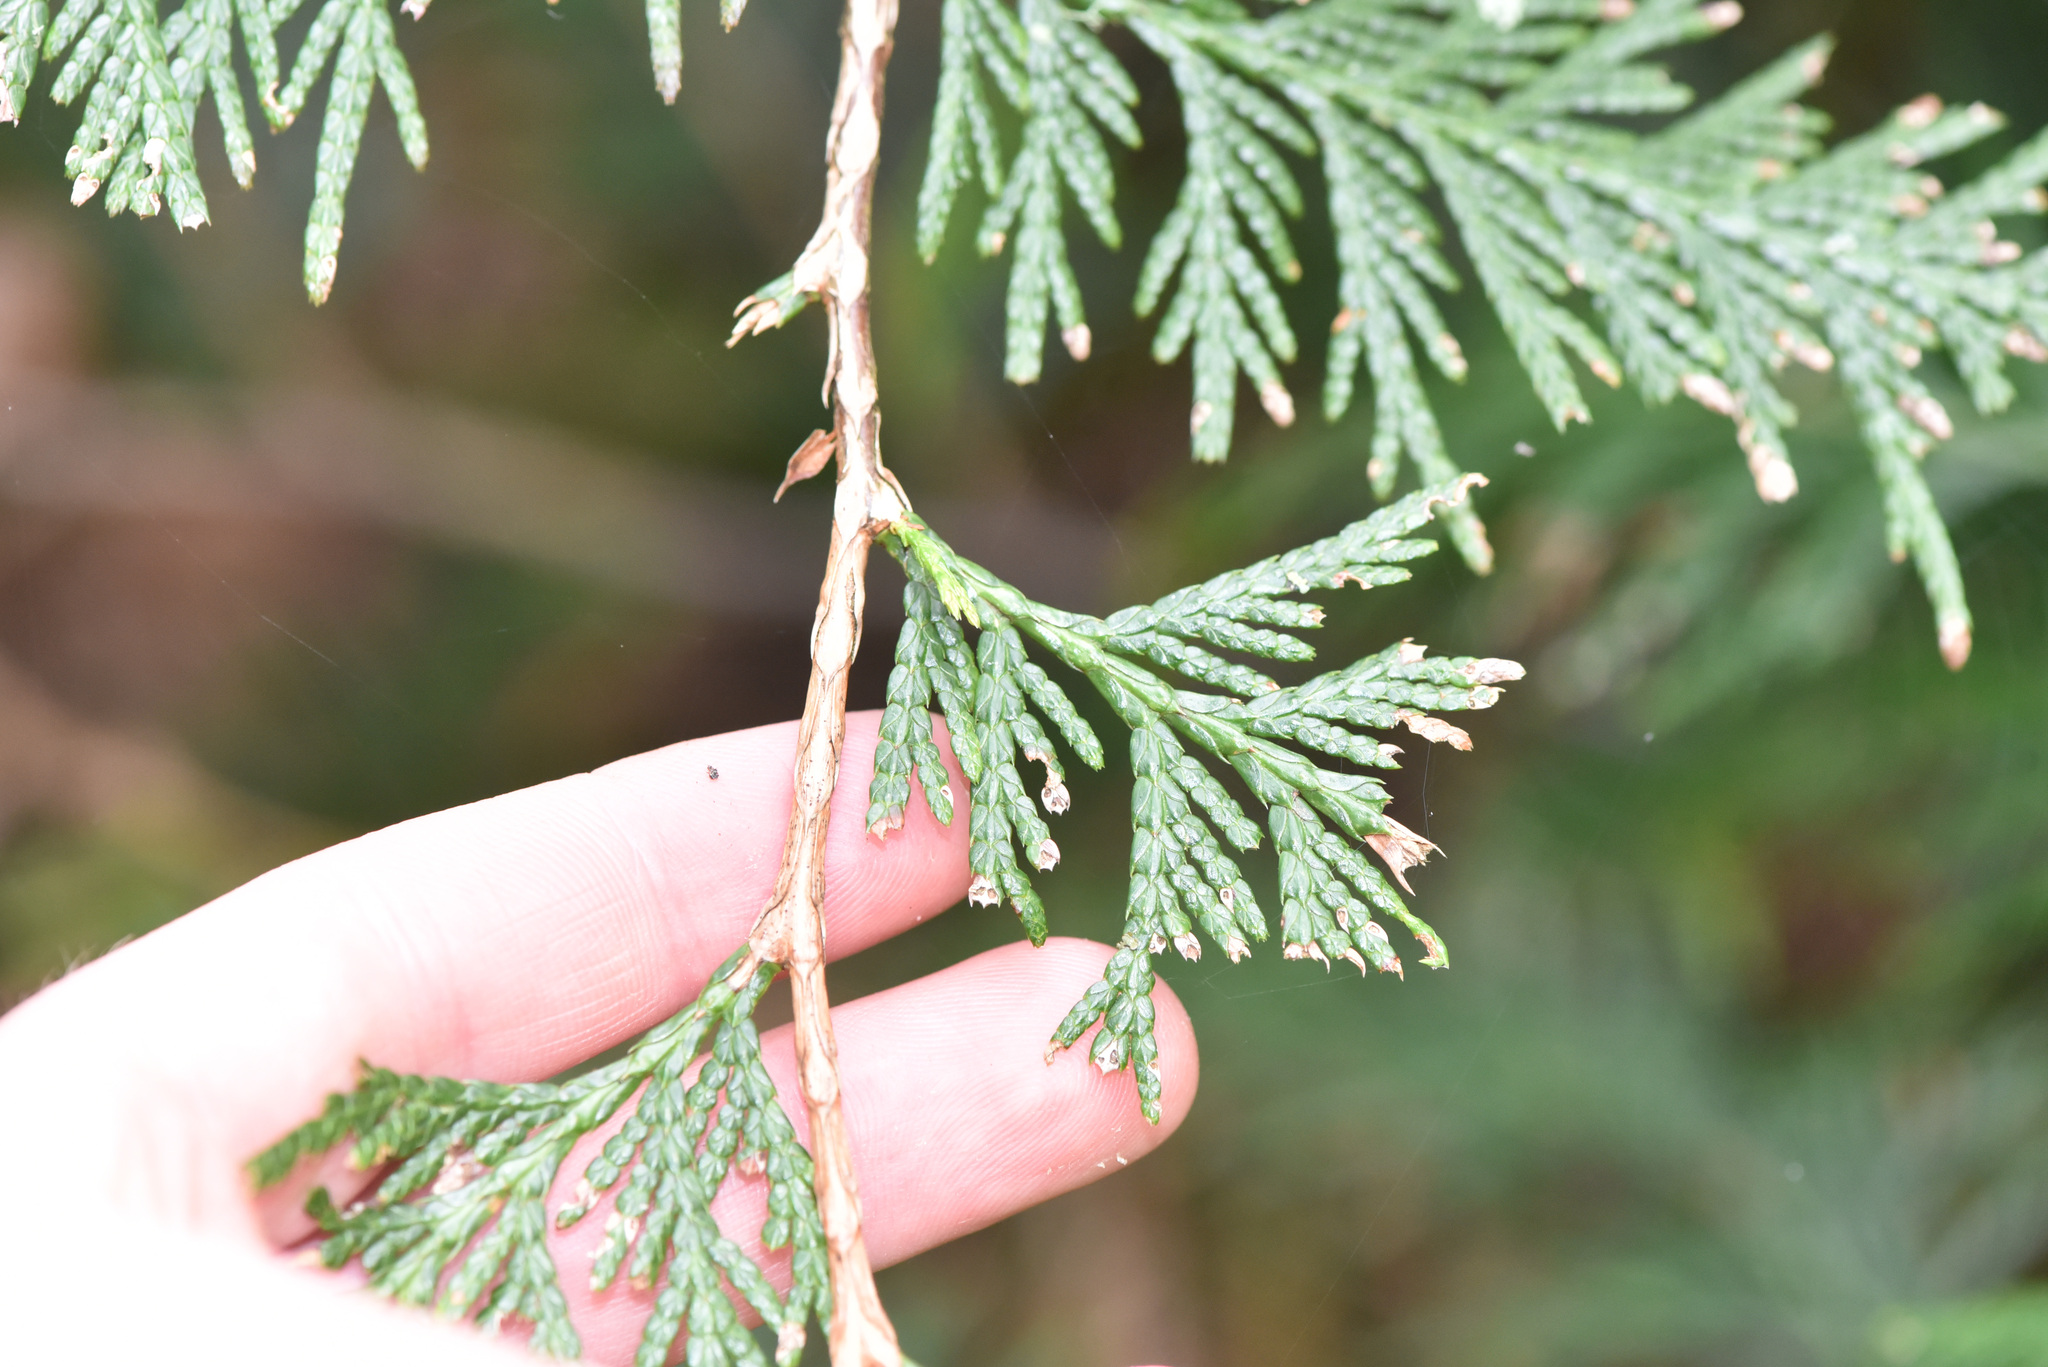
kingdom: Plantae
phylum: Tracheophyta
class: Pinopsida
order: Pinales
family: Cupressaceae
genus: Thuja
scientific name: Thuja plicata
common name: Western red-cedar
